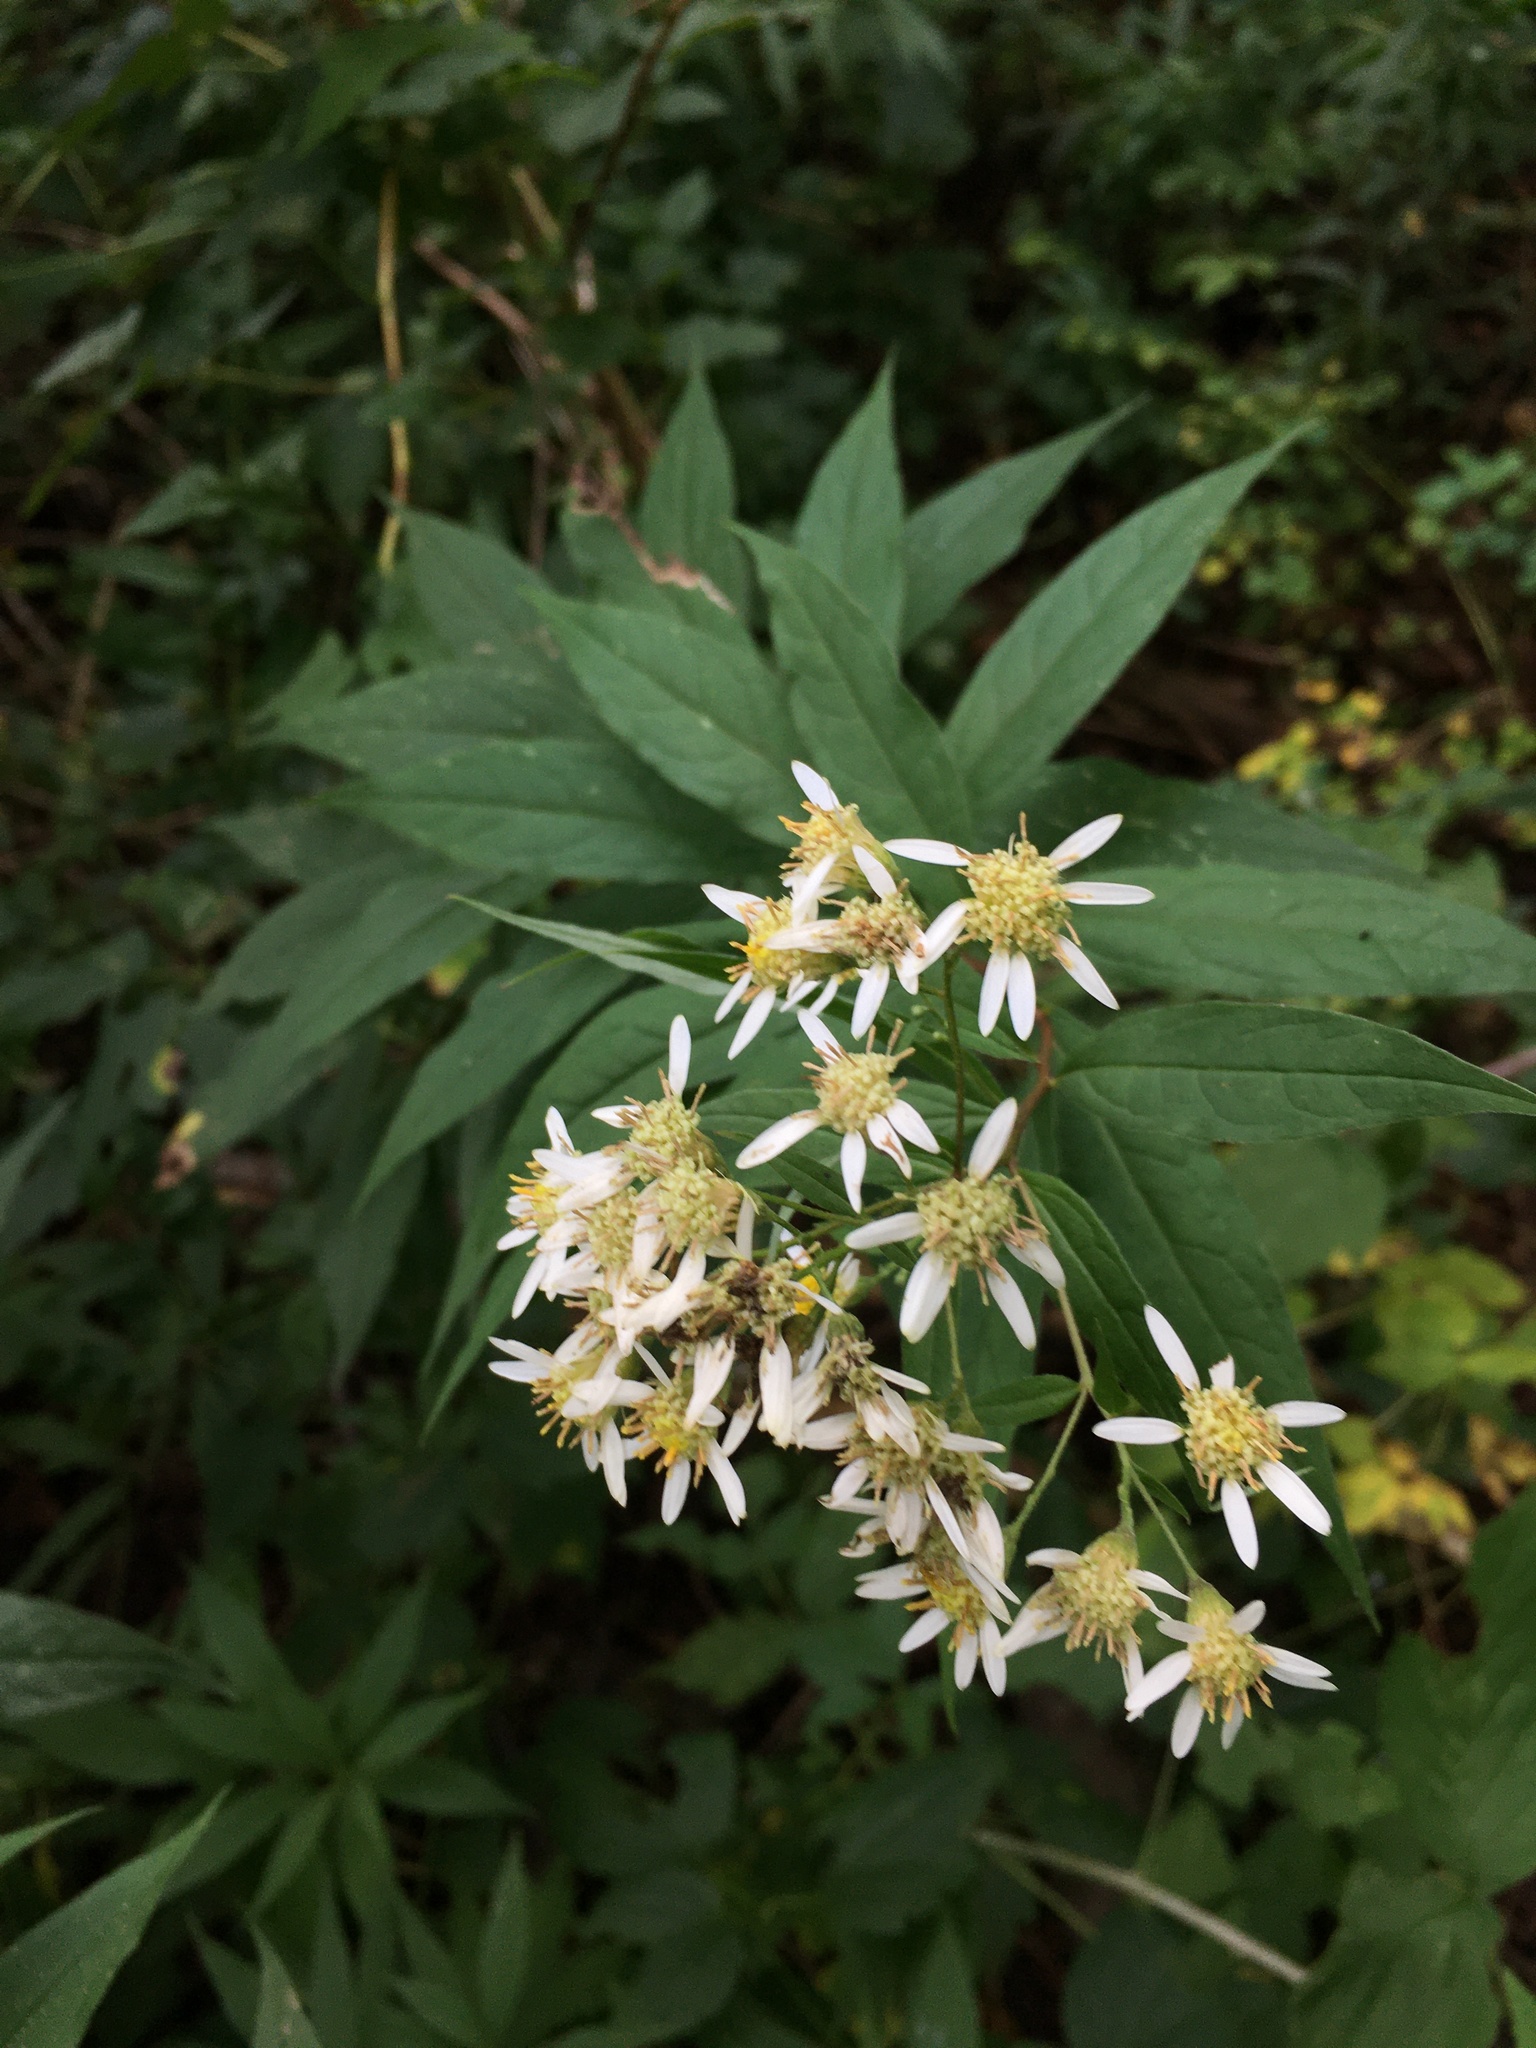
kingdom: Plantae
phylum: Tracheophyta
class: Magnoliopsida
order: Asterales
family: Asteraceae
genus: Doellingeria
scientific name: Doellingeria umbellata
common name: Flat-top white aster
